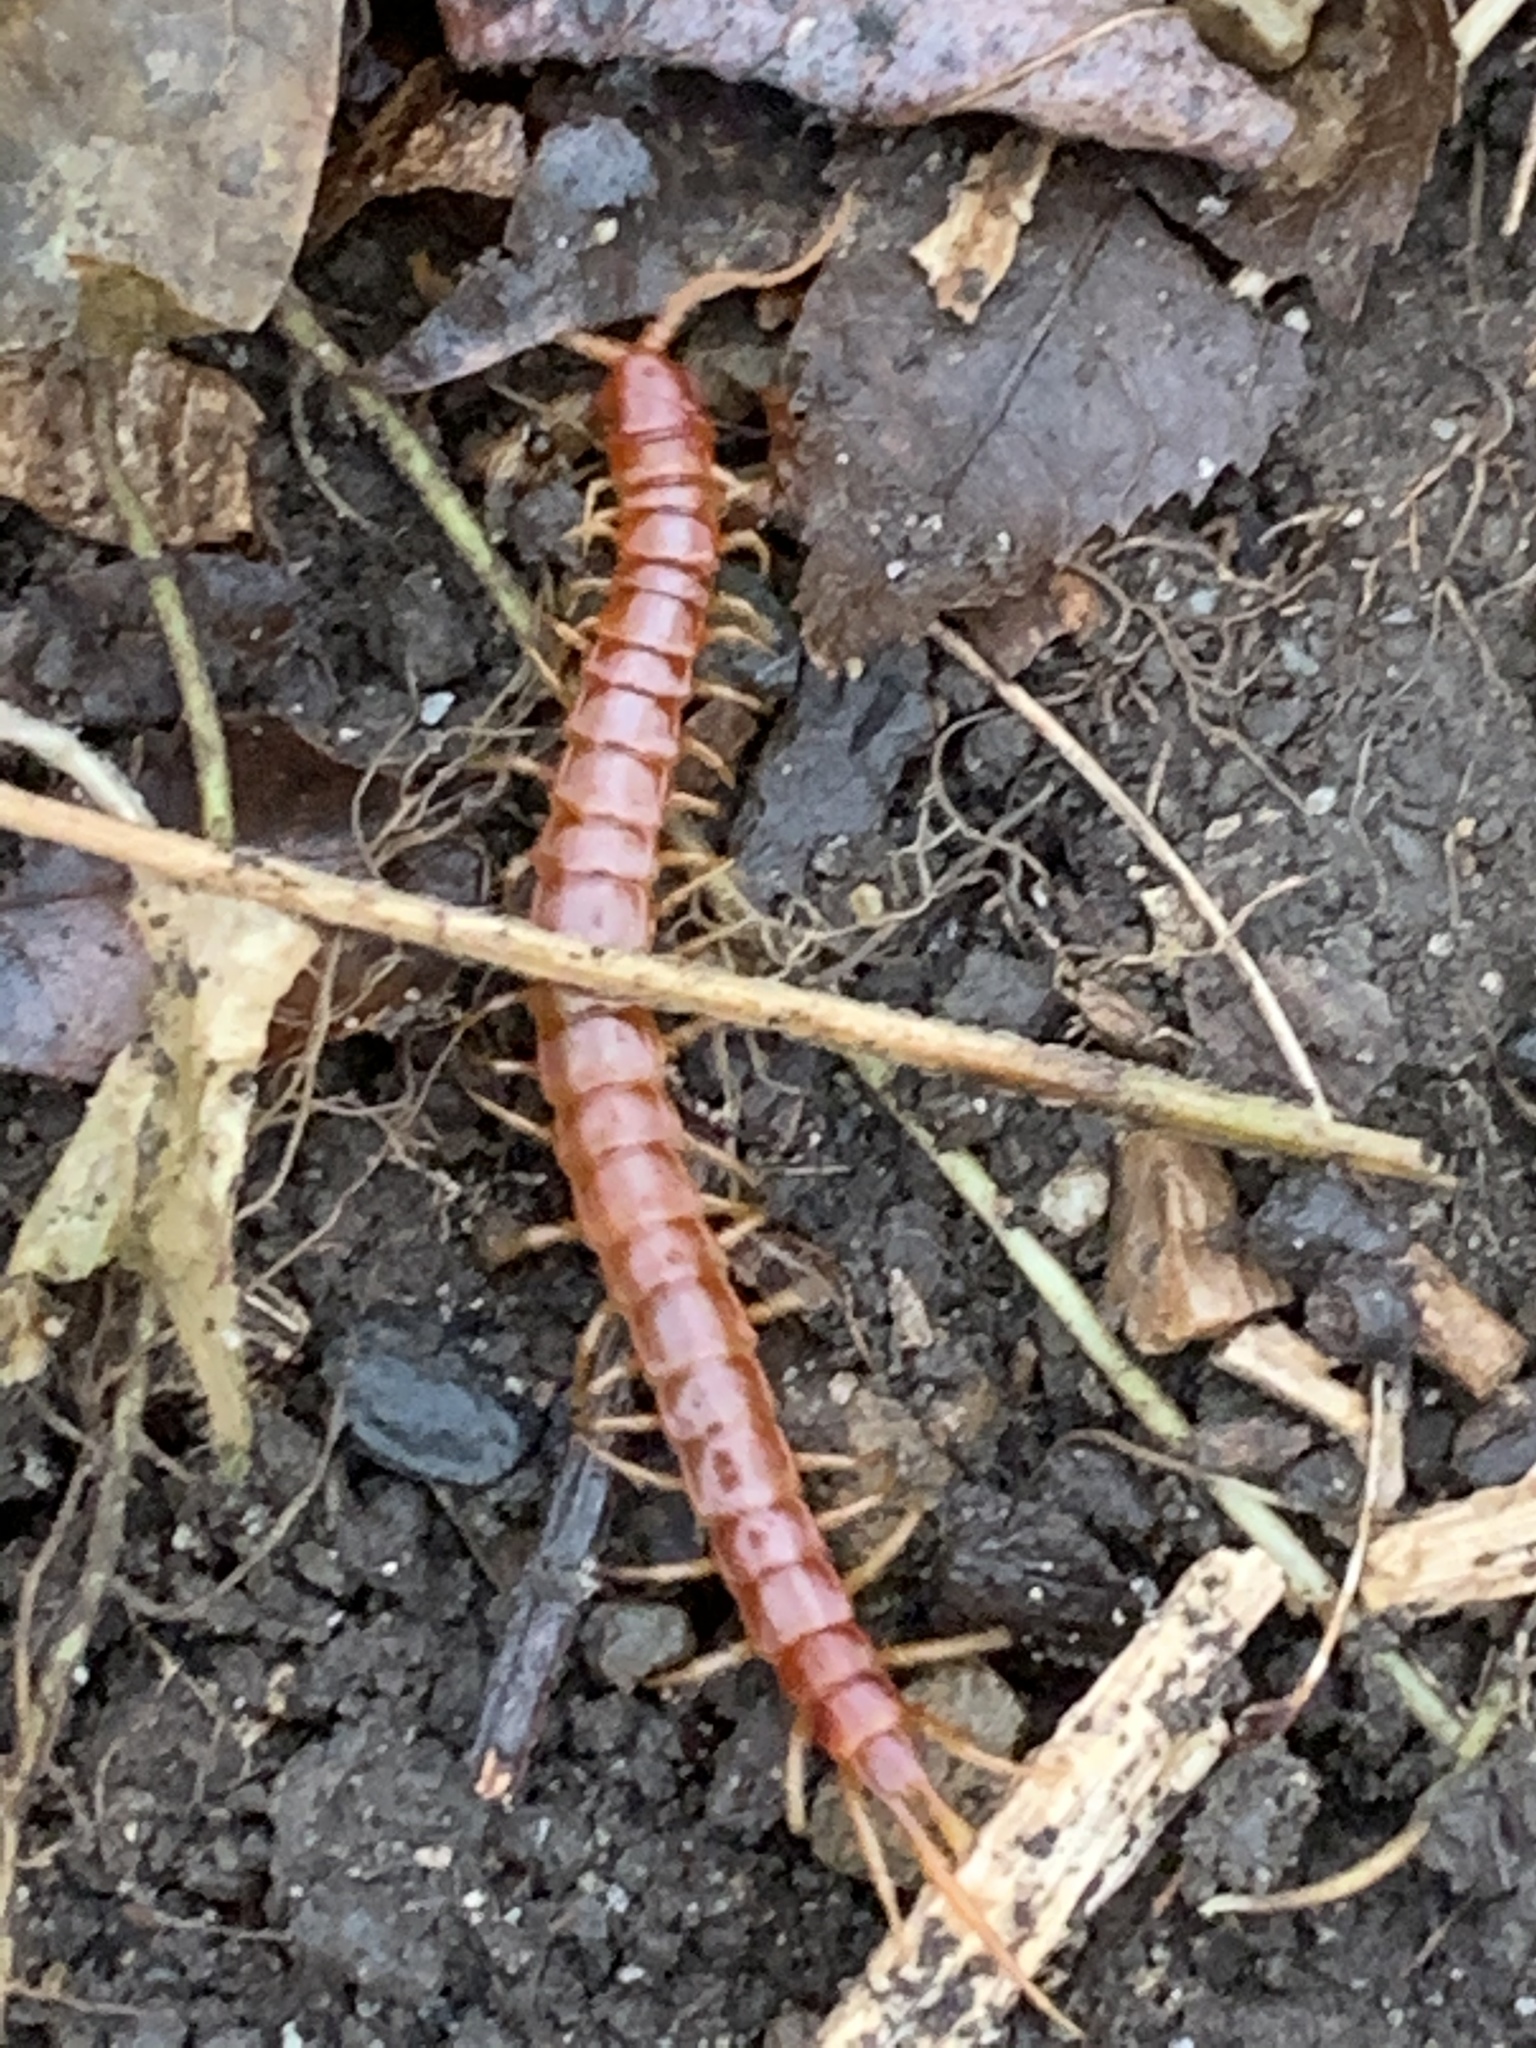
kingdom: Animalia
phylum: Arthropoda
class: Chilopoda
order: Scolopendromorpha
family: Scolopocryptopidae
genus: Scolopocryptops
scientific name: Scolopocryptops sexspinosus
